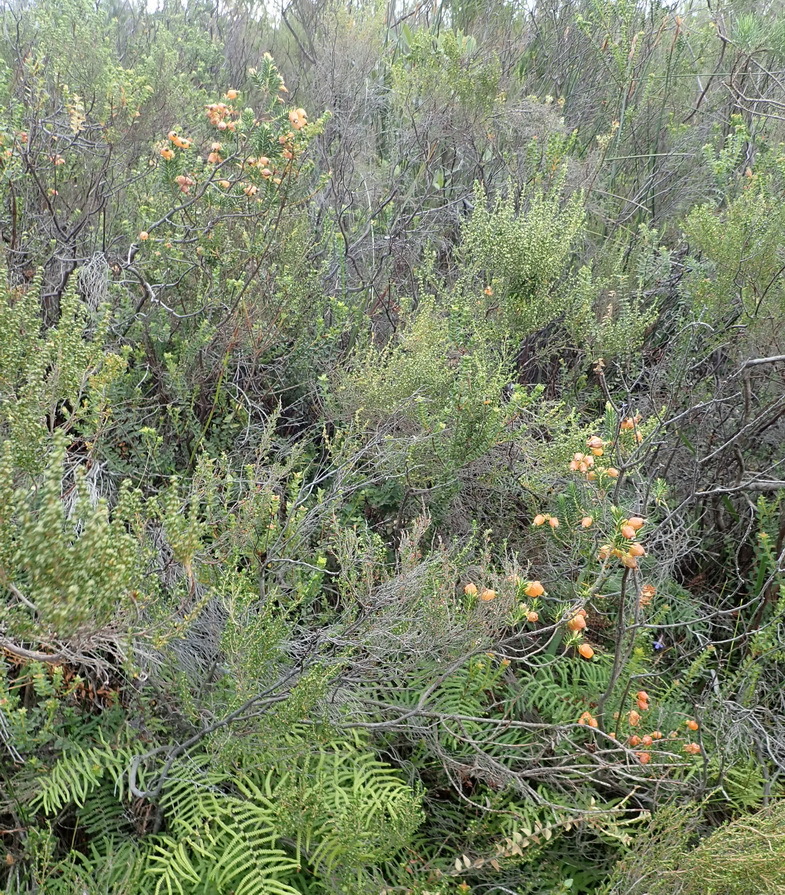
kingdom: Plantae
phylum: Tracheophyta
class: Magnoliopsida
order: Ericales
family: Ericaceae
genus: Erica
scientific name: Erica blenna
